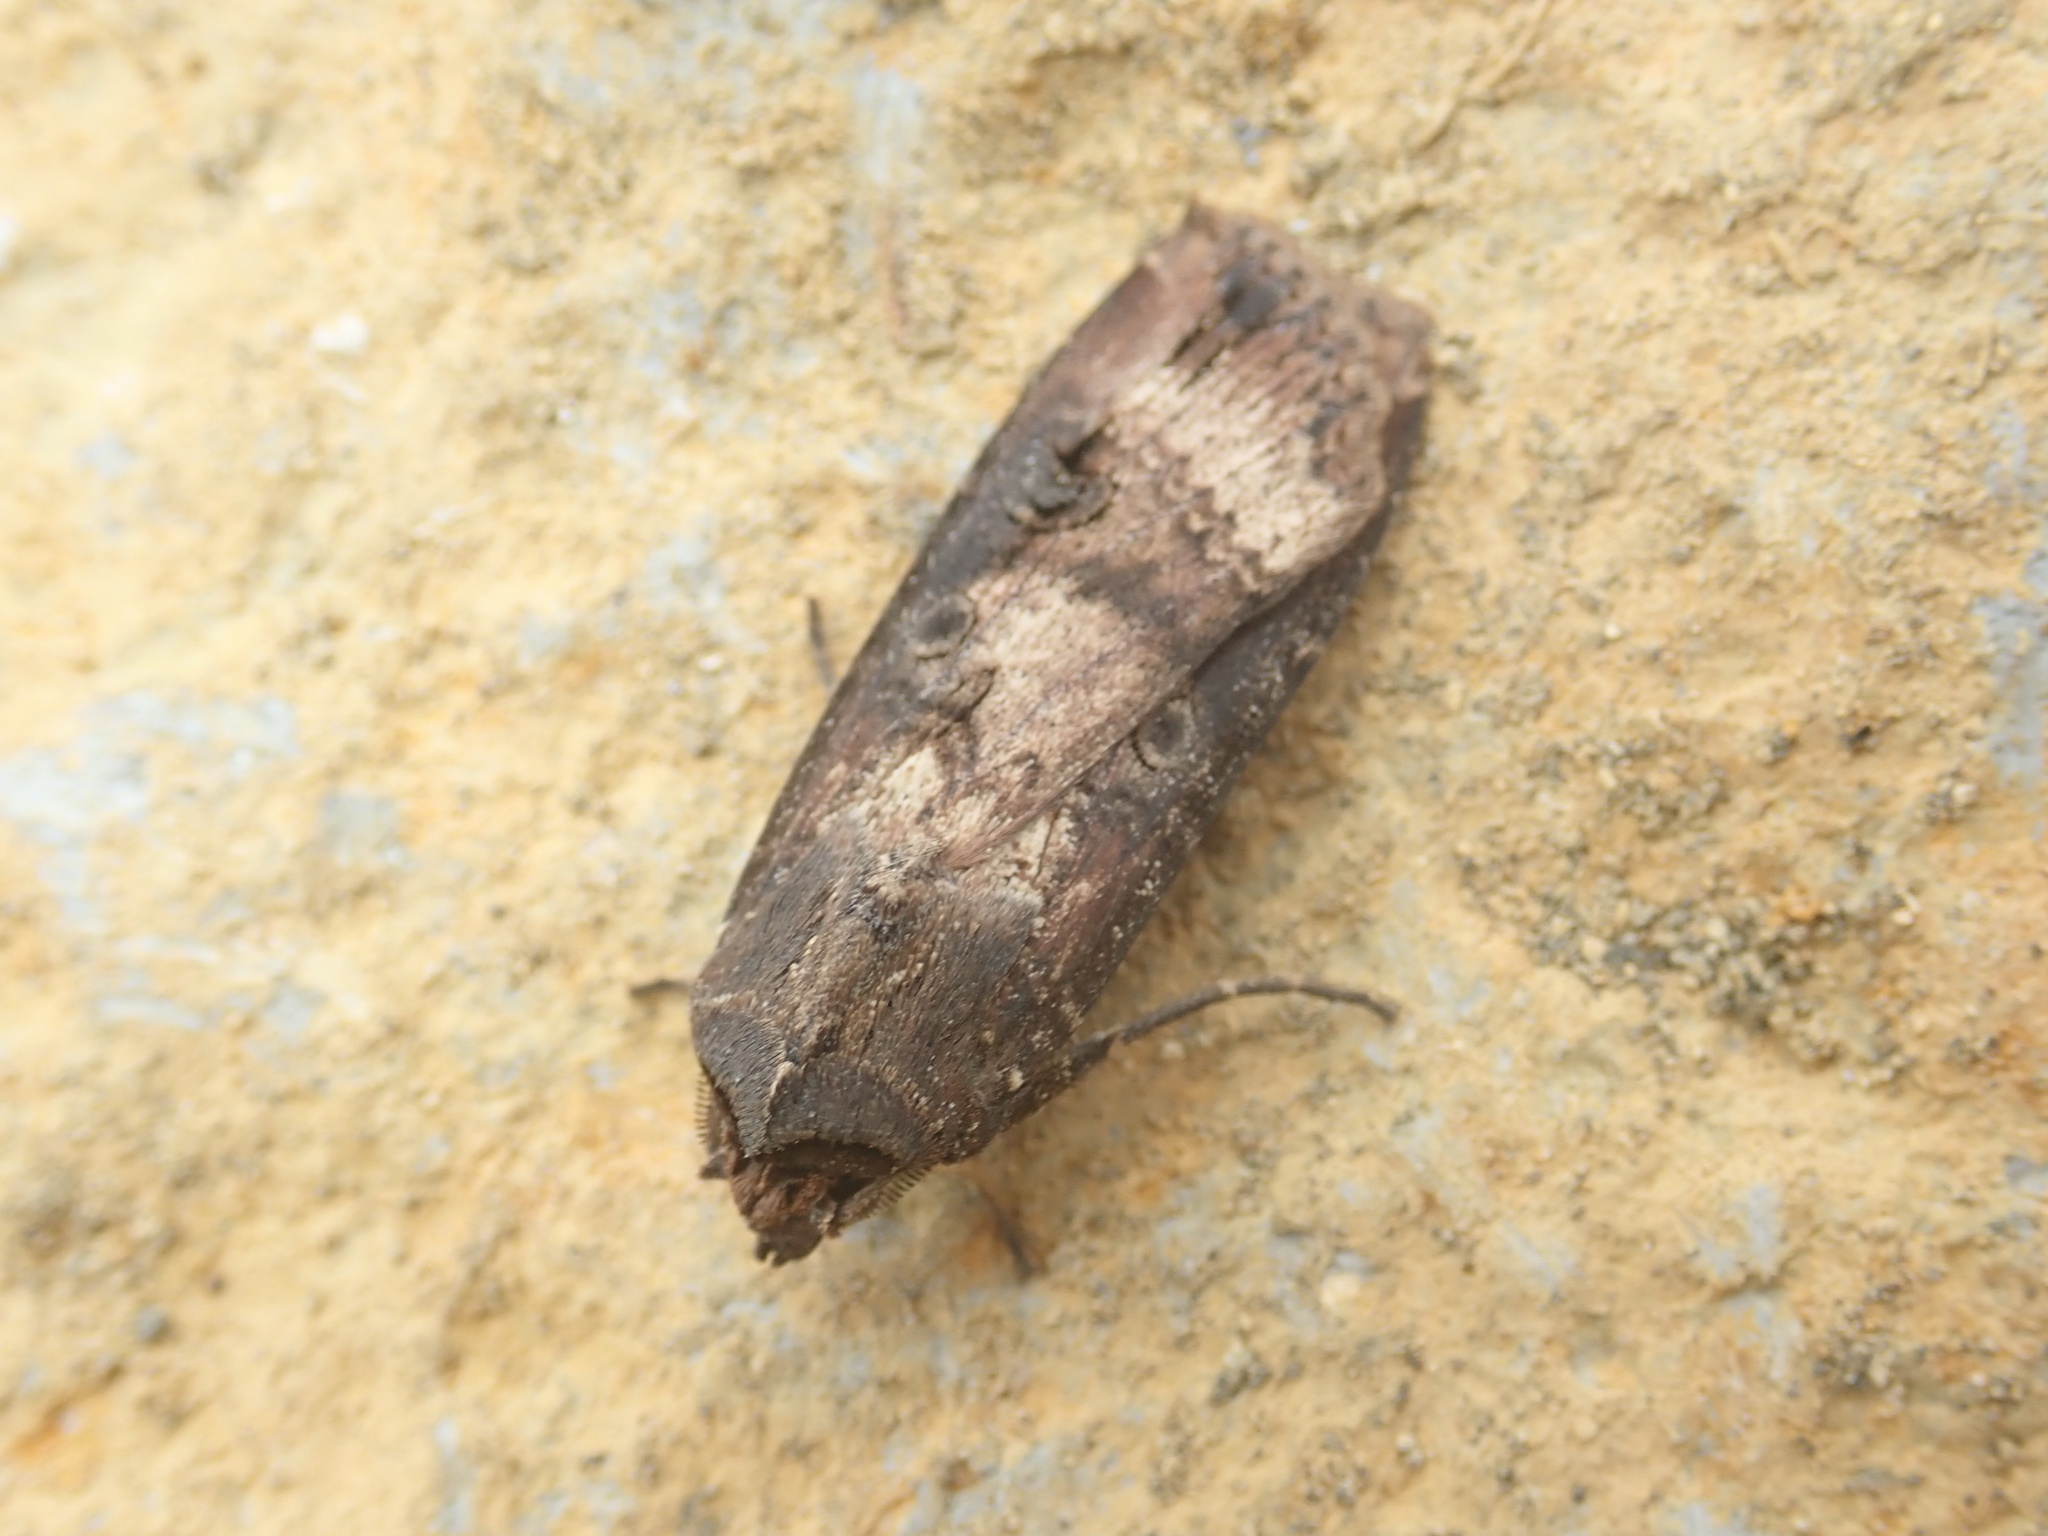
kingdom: Animalia
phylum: Arthropoda
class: Insecta
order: Lepidoptera
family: Noctuidae
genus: Agrotis
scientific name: Agrotis ipsilon
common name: Dark sword-grass
